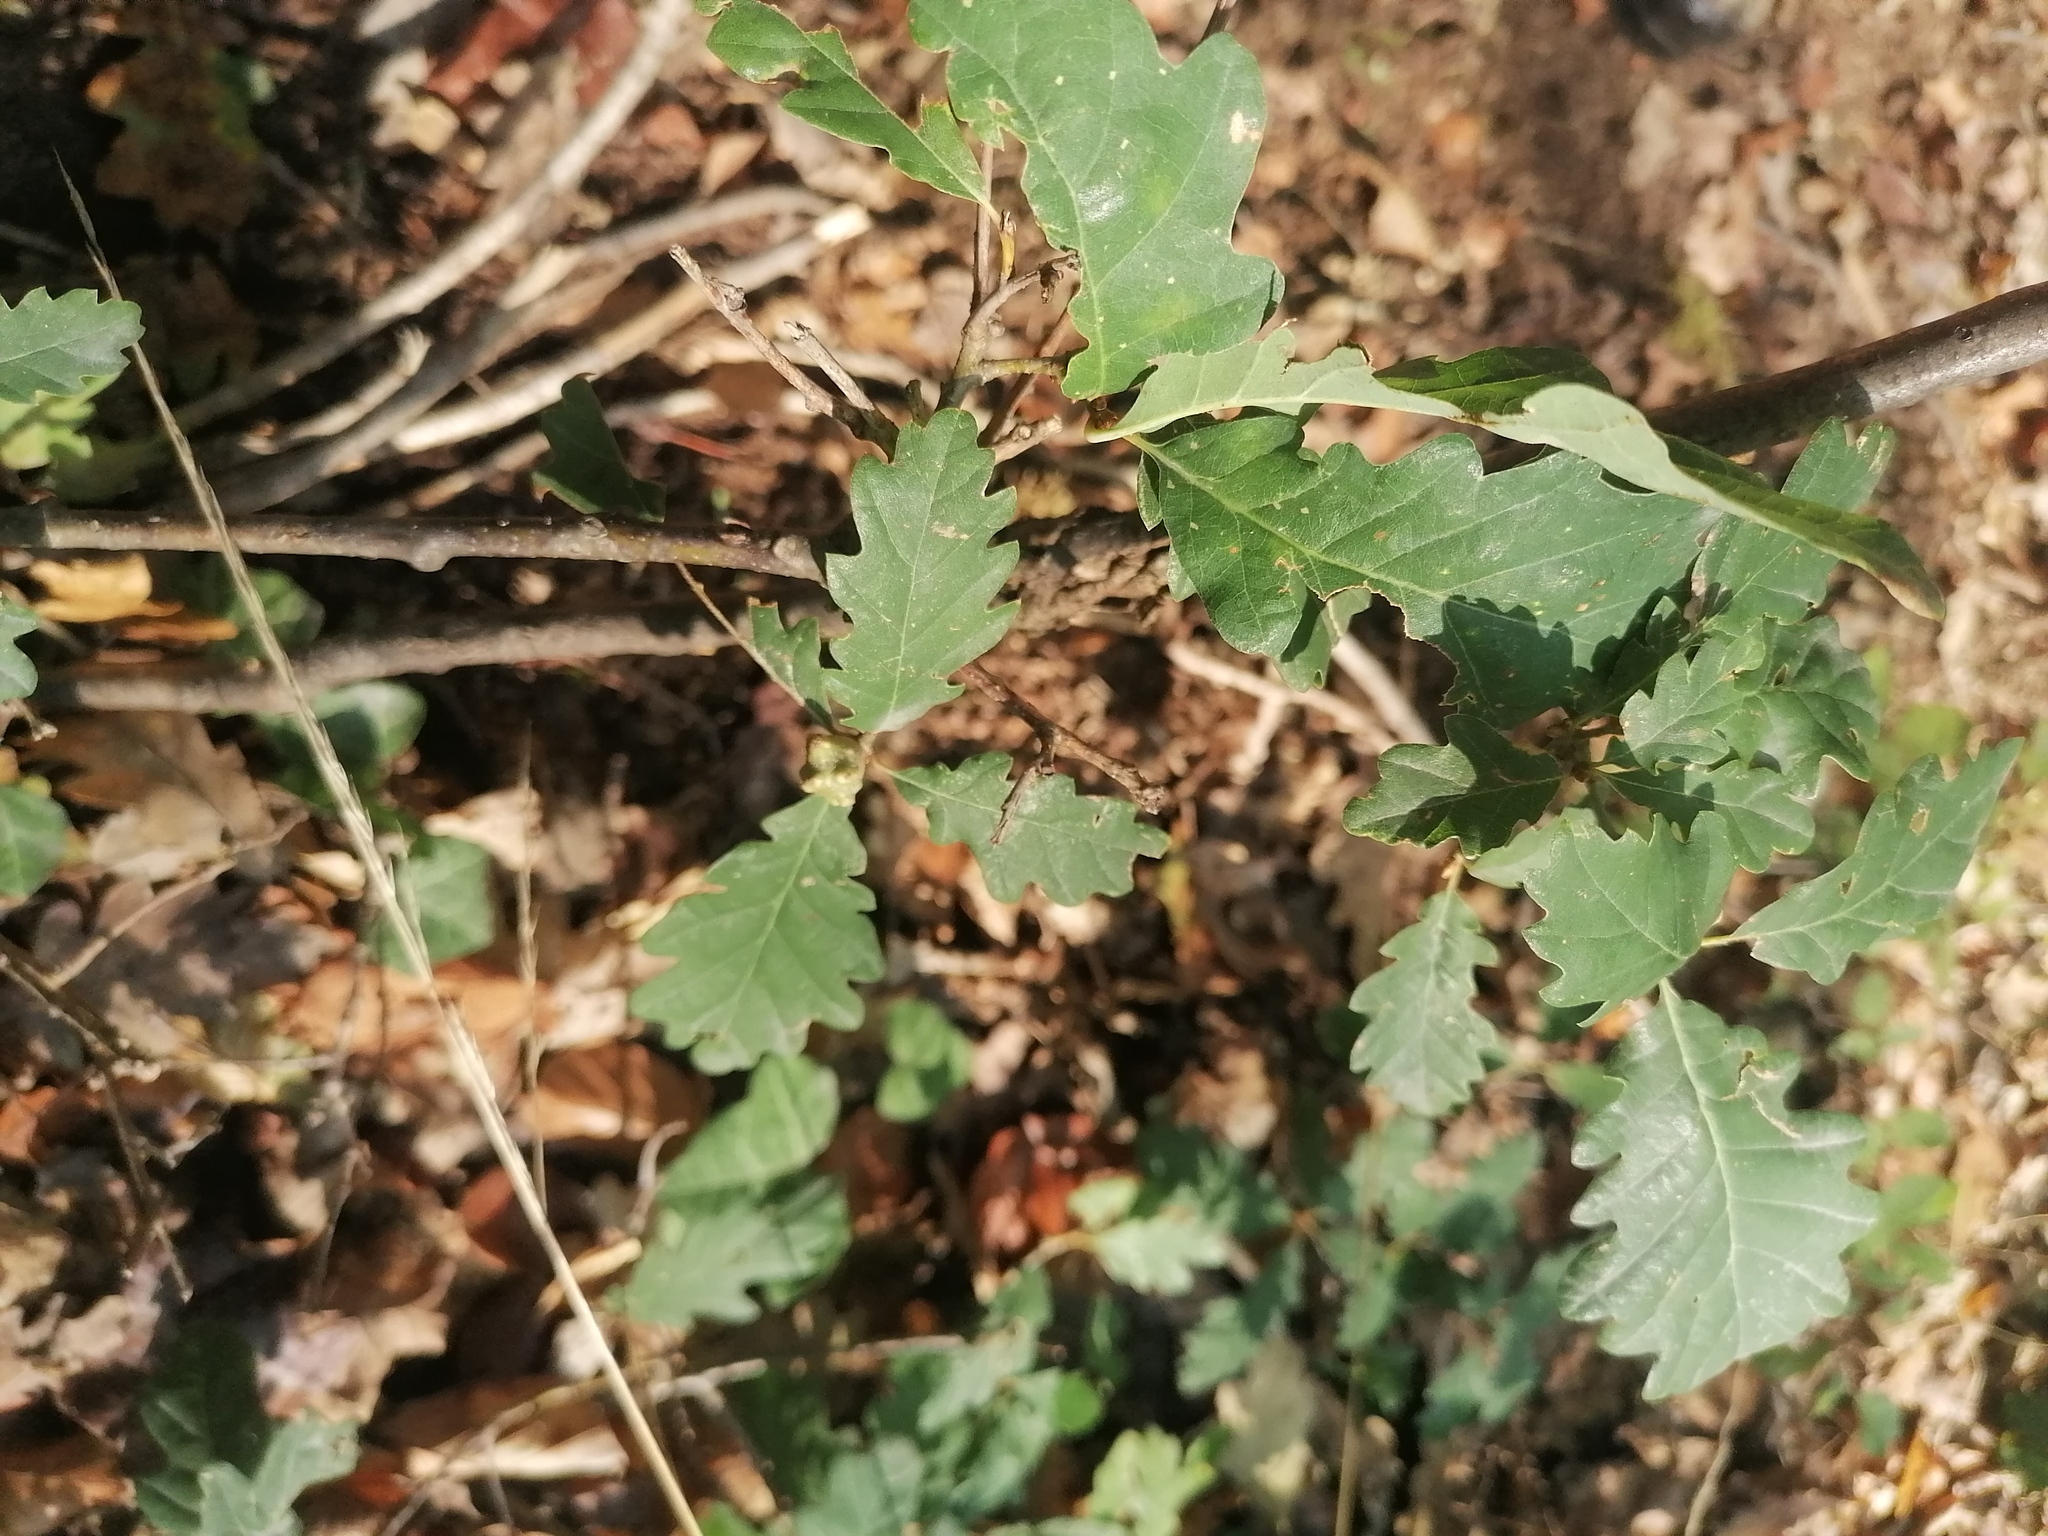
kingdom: Animalia
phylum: Arthropoda
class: Insecta
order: Hymenoptera
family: Cynipidae
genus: Andricus
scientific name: Andricus infectorius
